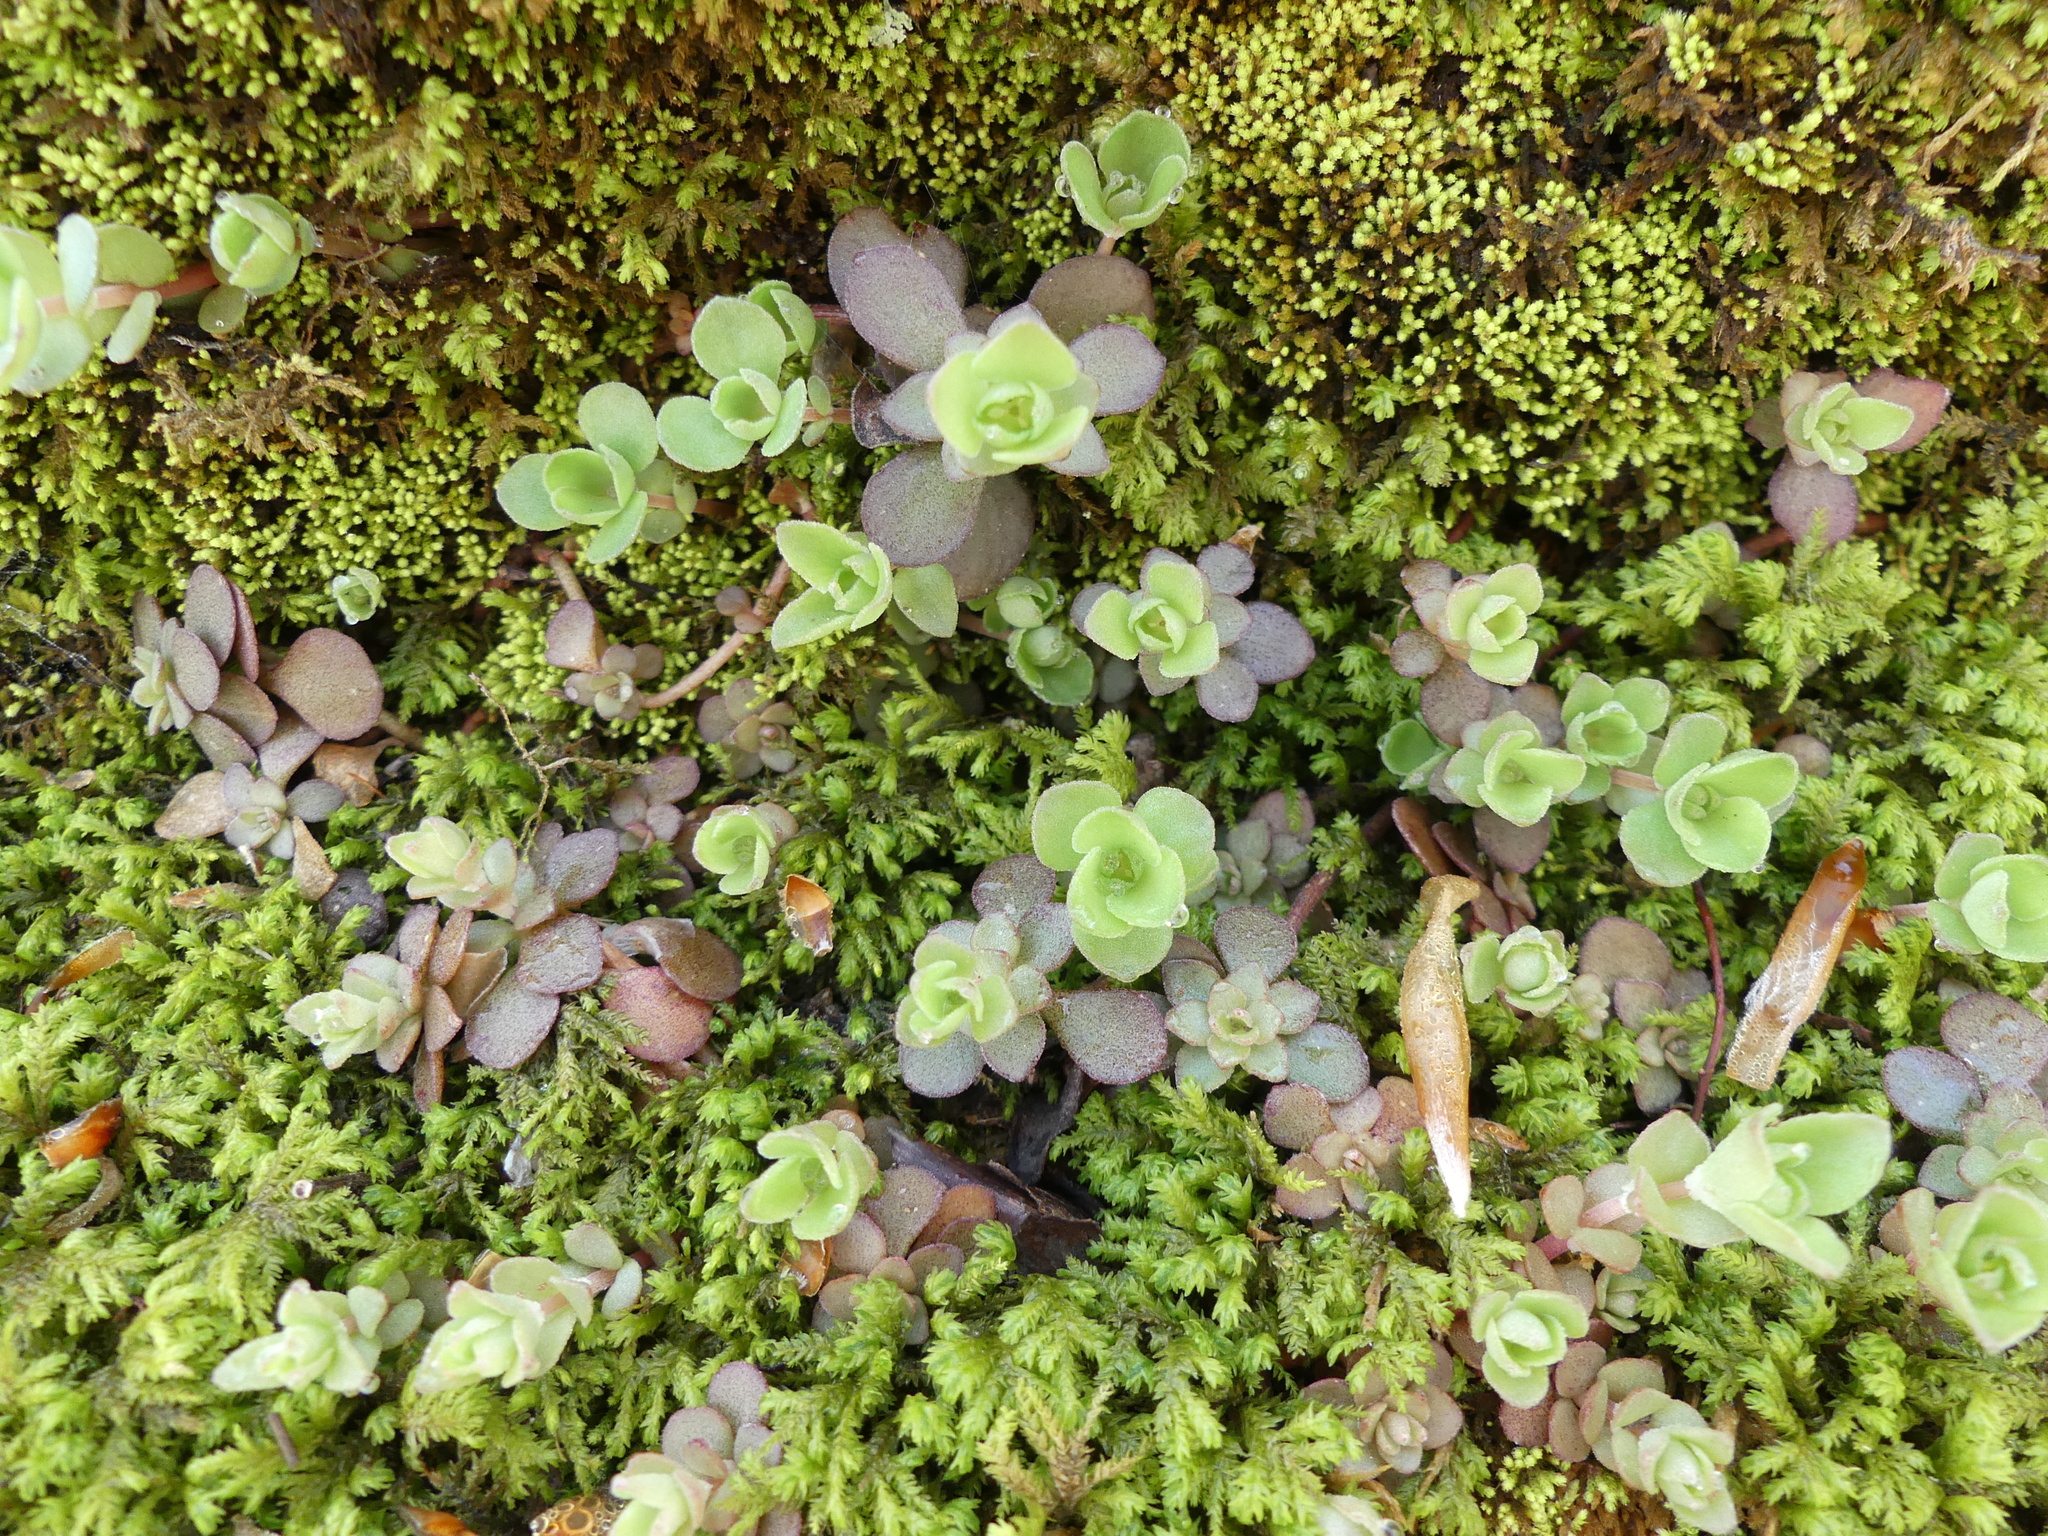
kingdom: Plantae
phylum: Tracheophyta
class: Magnoliopsida
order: Saxifragales
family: Crassulaceae
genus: Sedum
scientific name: Sedum ternatum
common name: Wild stonecrop
